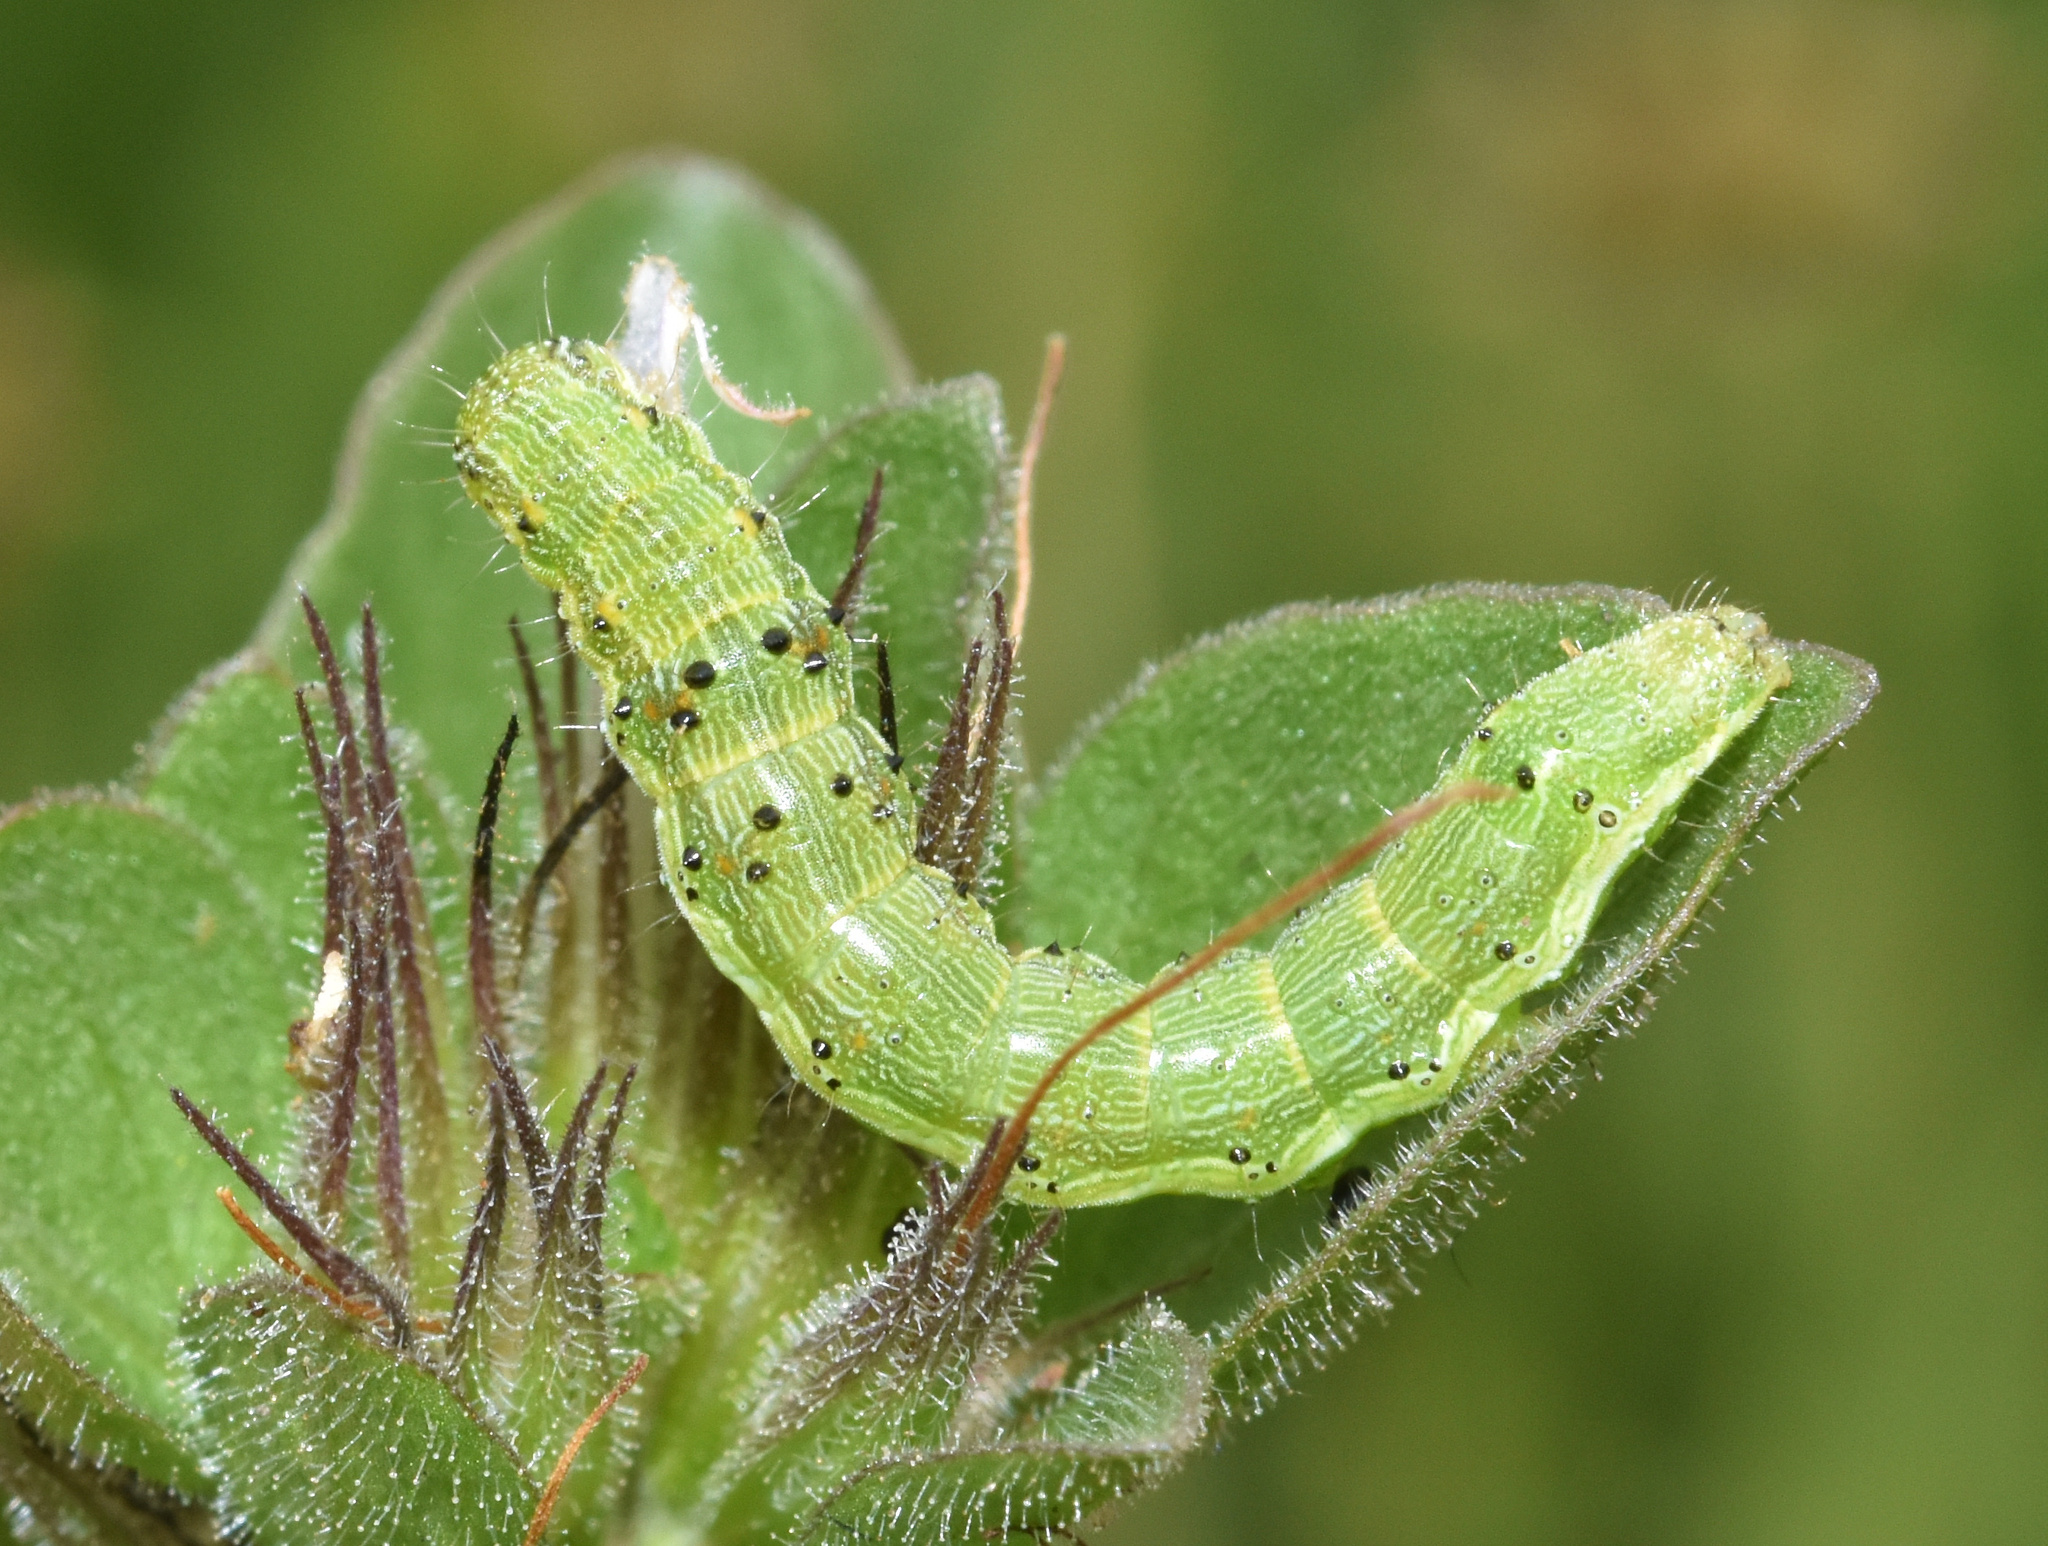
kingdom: Animalia
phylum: Arthropoda
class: Insecta
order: Lepidoptera
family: Noctuidae
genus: Helicoverpa
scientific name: Helicoverpa armigera
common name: Cotton bollworm
